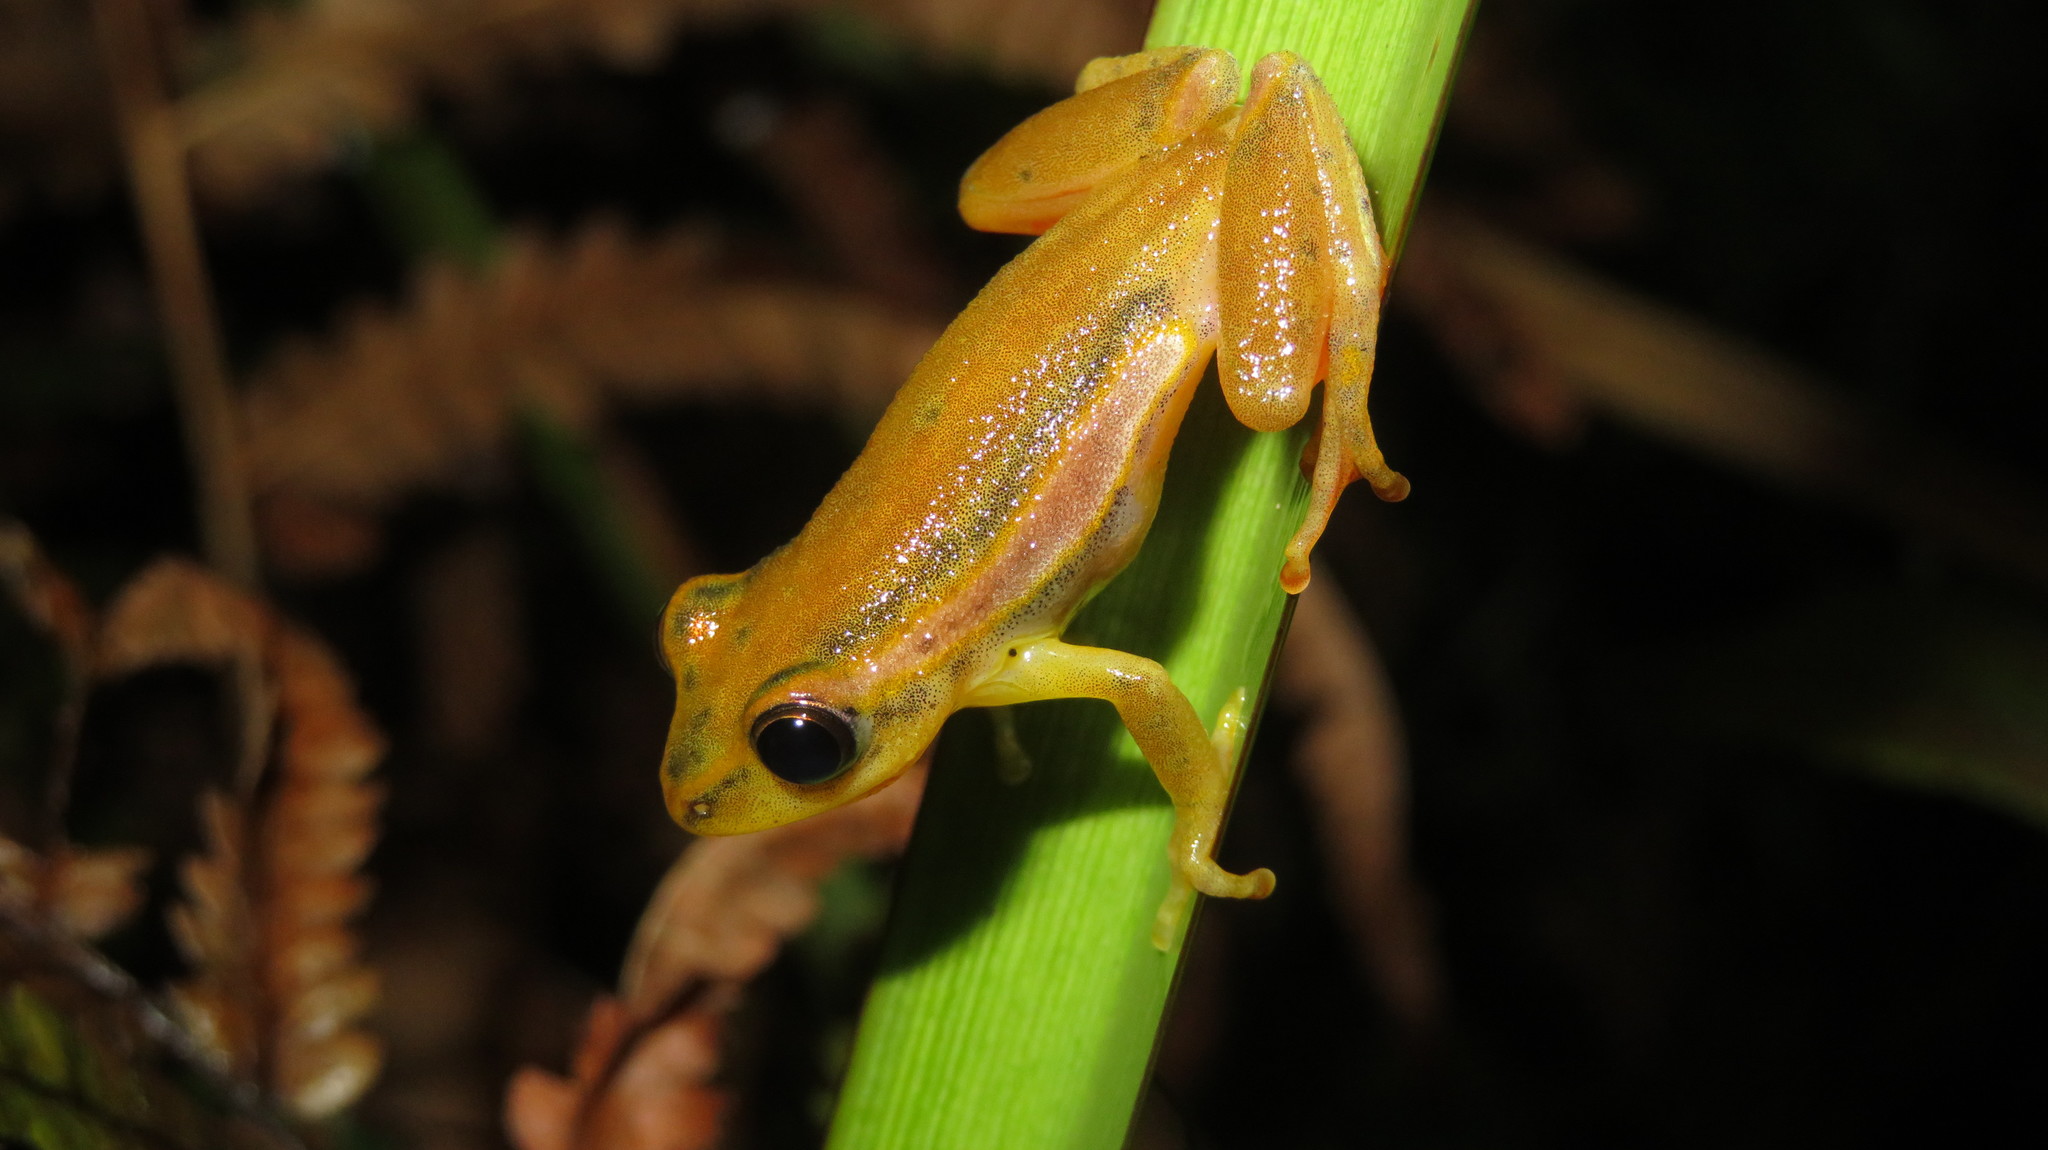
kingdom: Animalia
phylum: Chordata
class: Amphibia
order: Anura
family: Hyperoliidae
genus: Hyperolius
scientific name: Hyperolius rubrovermiculatus
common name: Shimba hills reed frog
